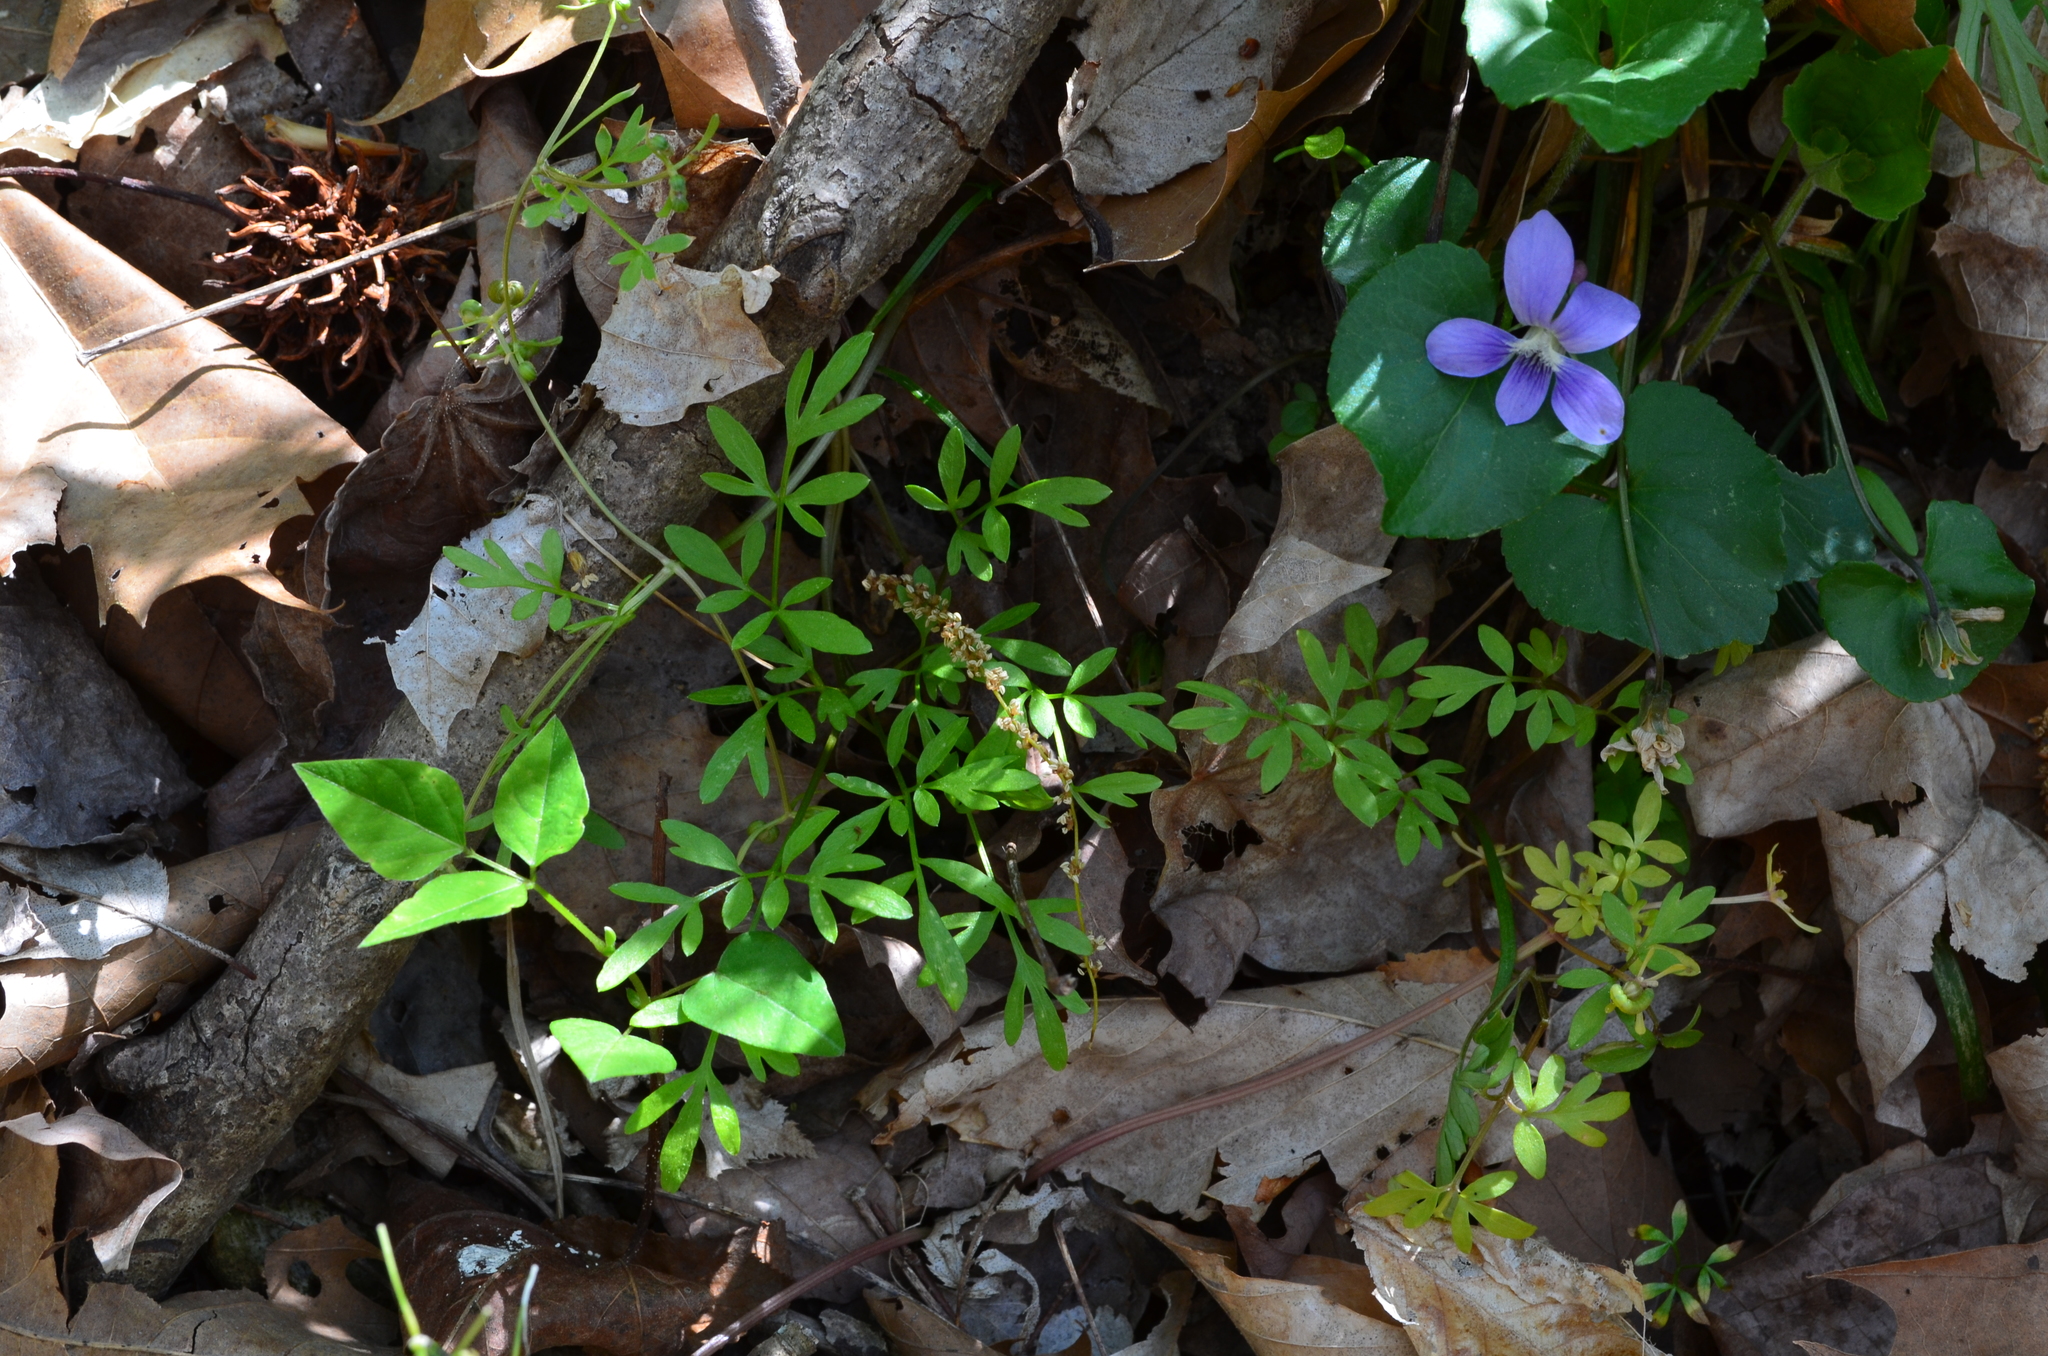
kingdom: Plantae
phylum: Tracheophyta
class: Magnoliopsida
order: Apiales
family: Apiaceae
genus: Erigenia
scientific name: Erigenia bulbosa
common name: Pepper-and-salt
